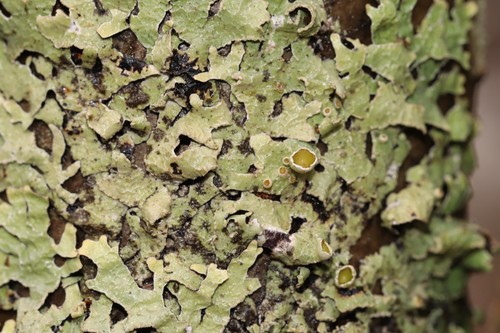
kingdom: Fungi
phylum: Ascomycota
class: Lecanoromycetes
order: Lecanorales
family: Parmeliaceae
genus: Parmelia
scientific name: Parmelia sulcata
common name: Netted shield lichen
